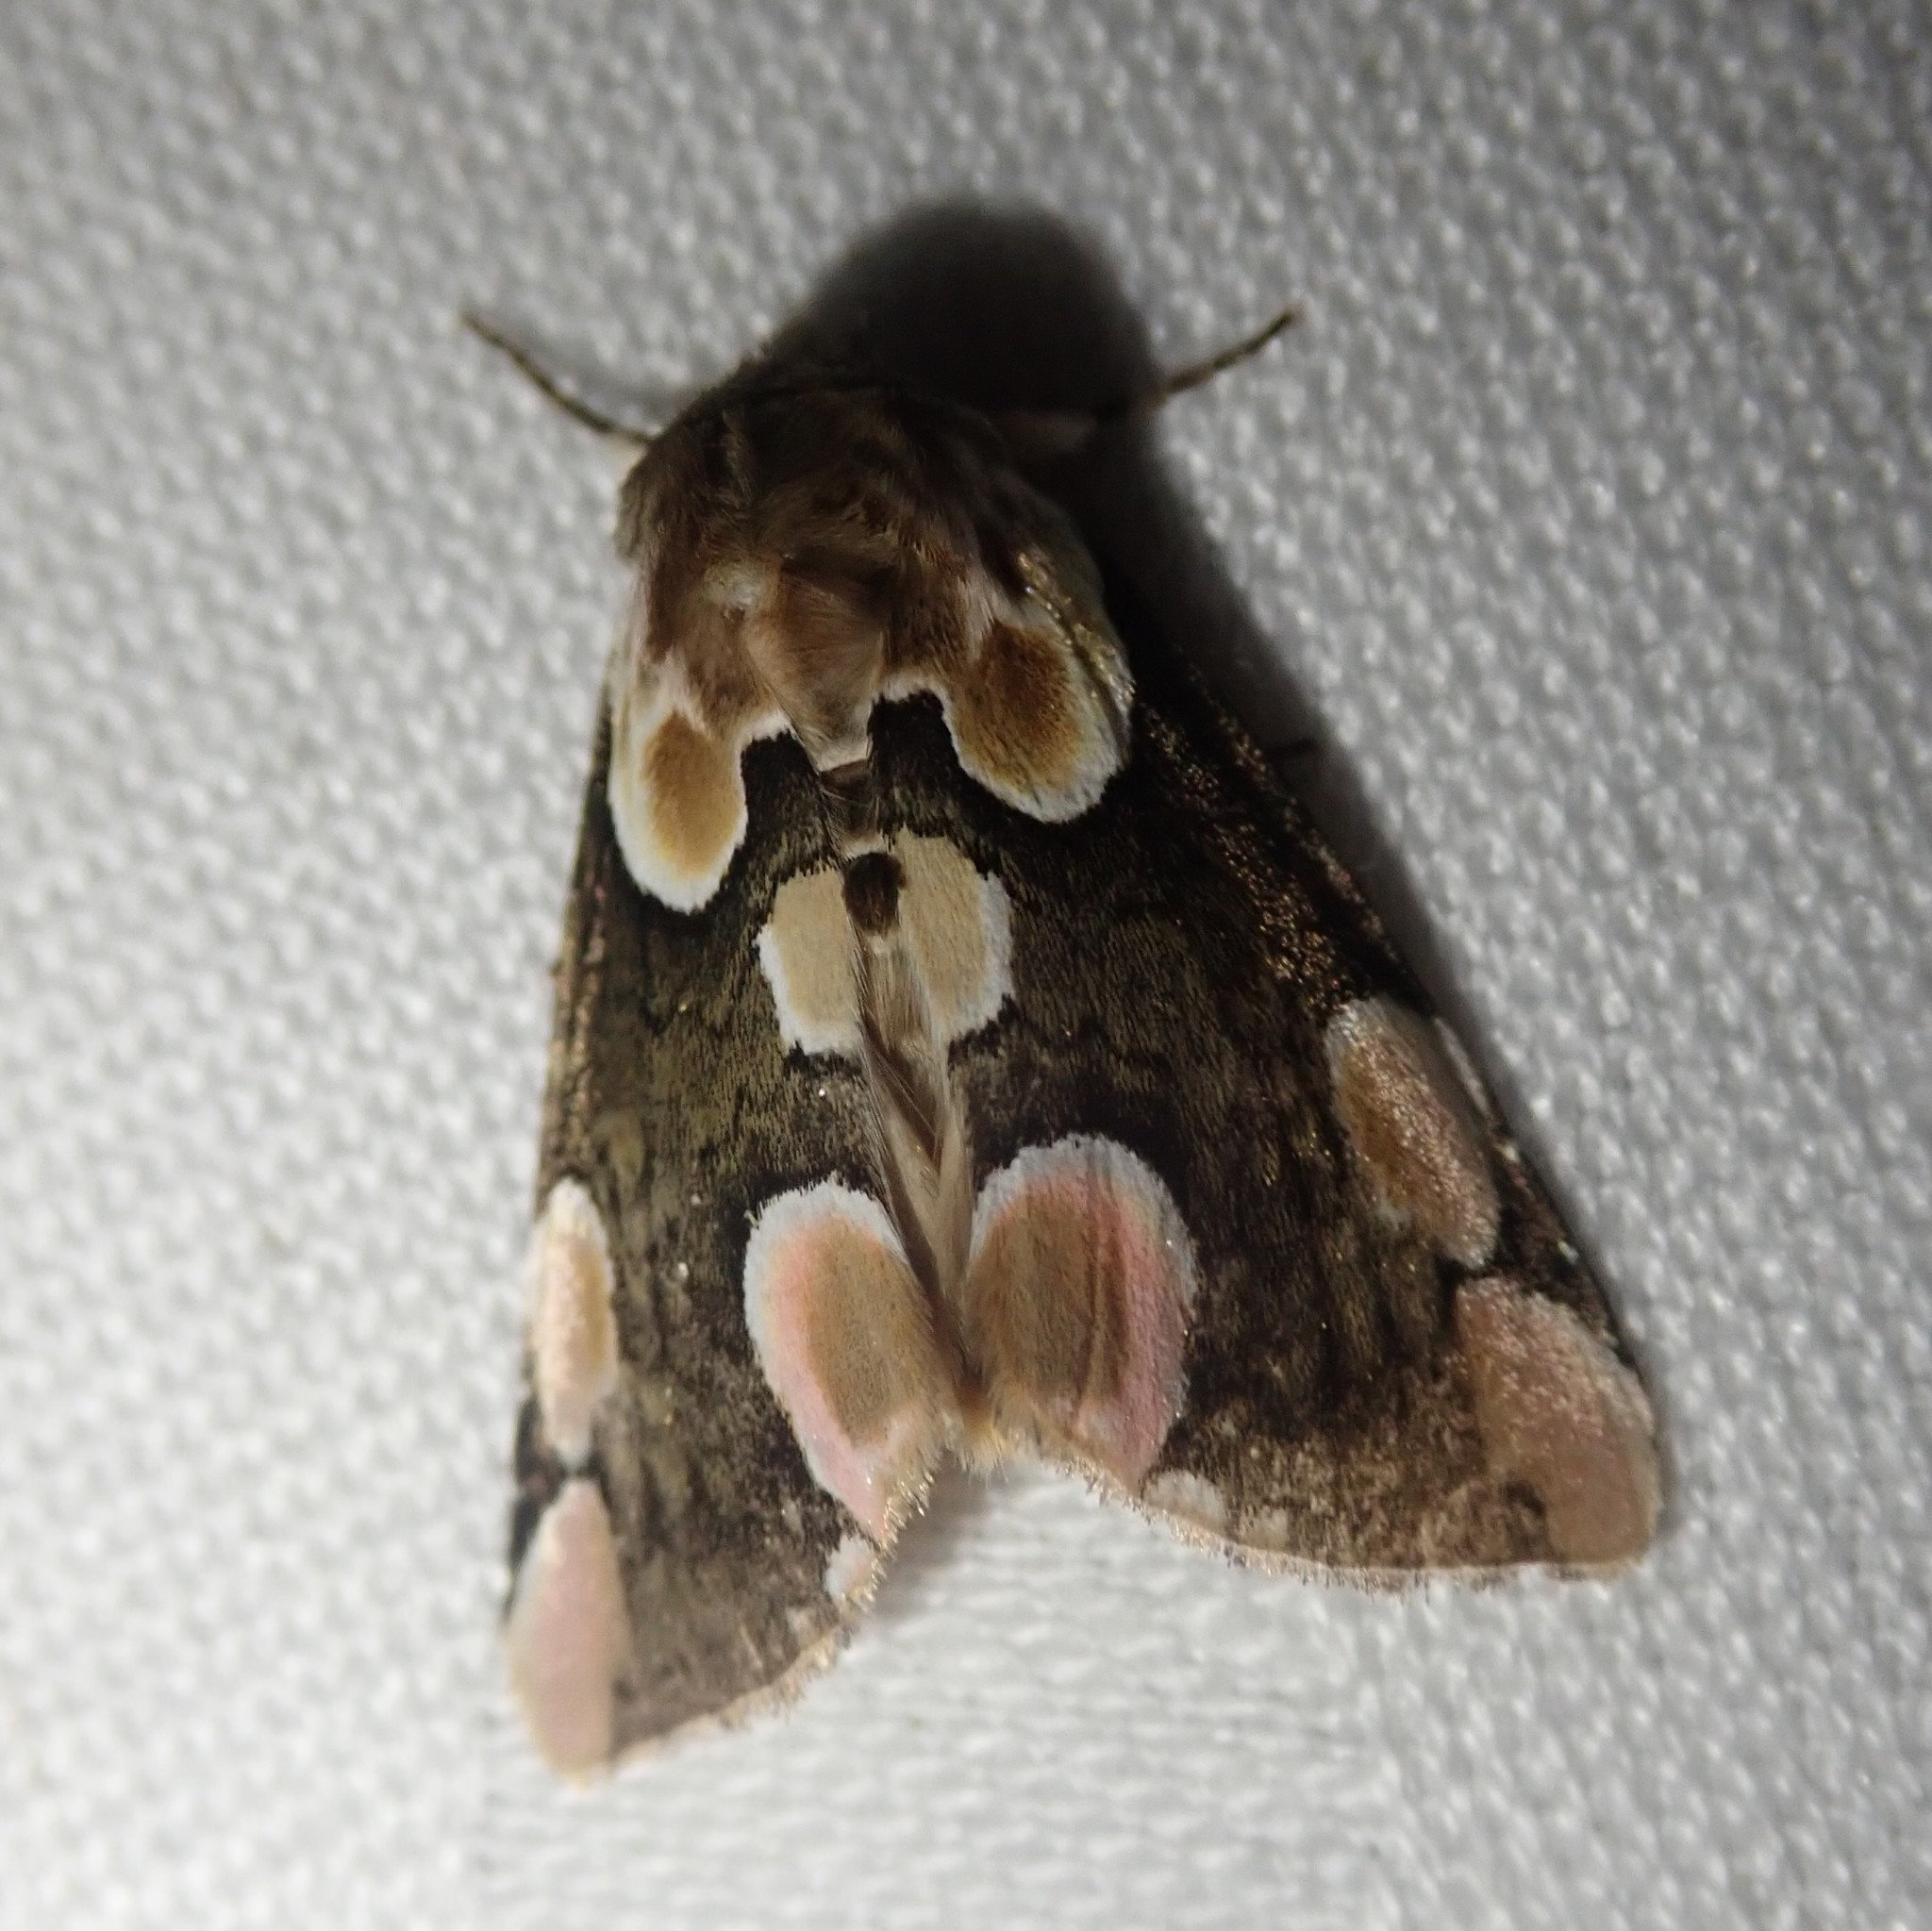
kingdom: Animalia
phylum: Arthropoda
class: Insecta
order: Lepidoptera
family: Drepanidae
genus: Thyatira
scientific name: Thyatira batis
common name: Peach blossom
